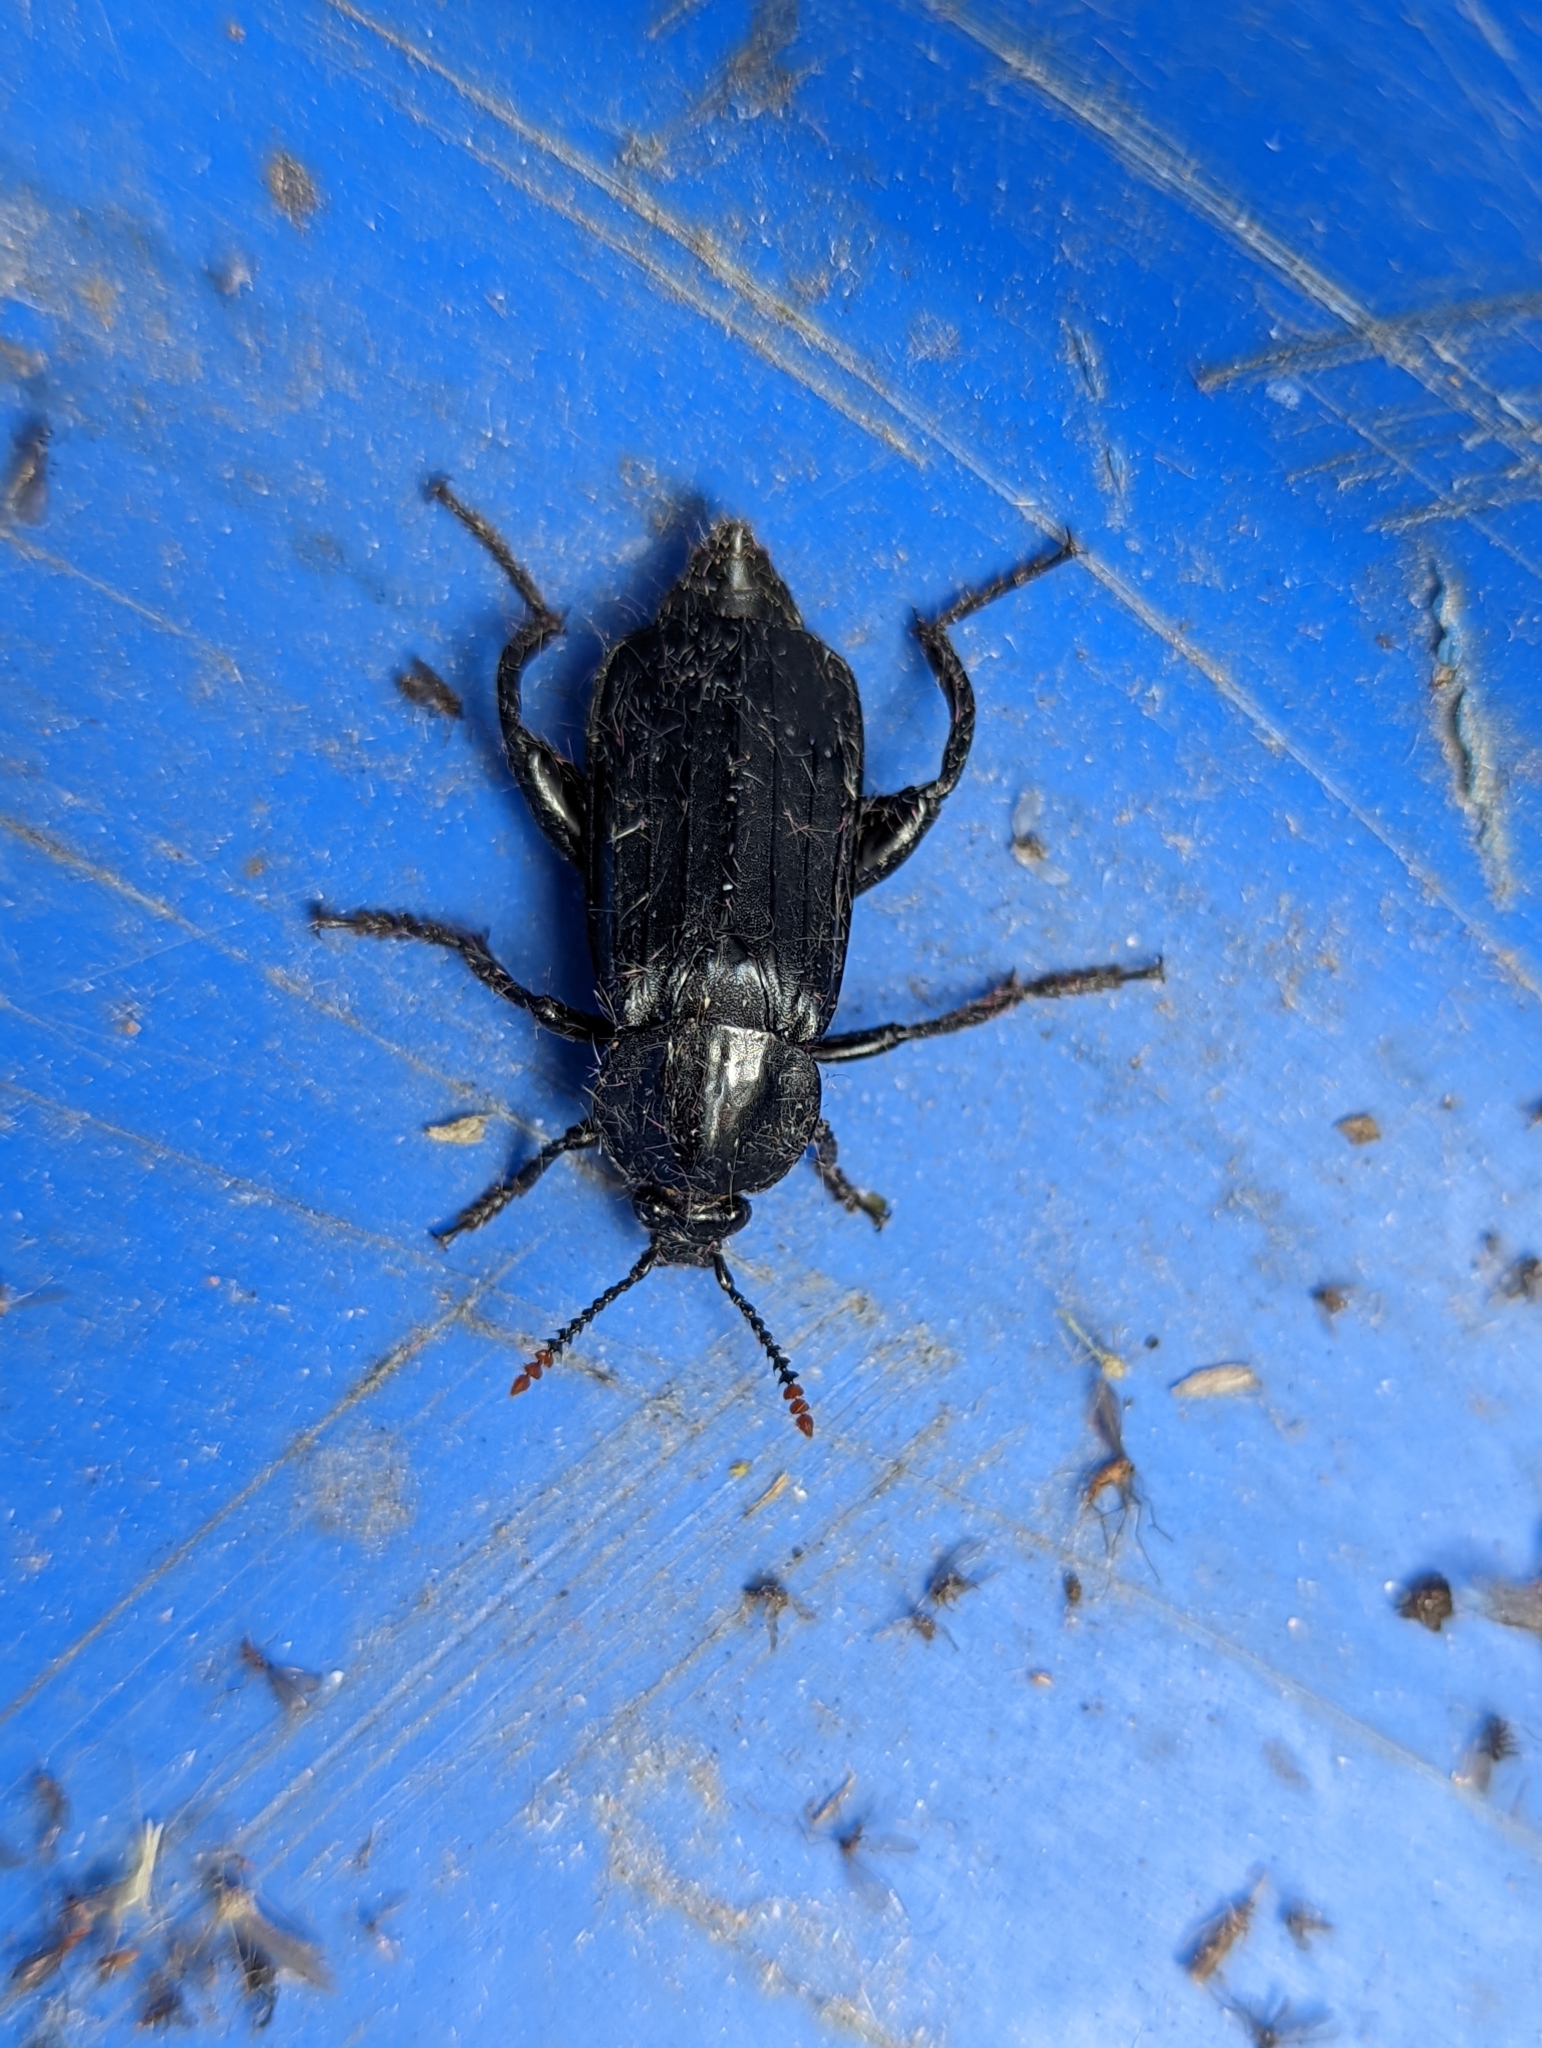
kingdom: Animalia
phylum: Arthropoda
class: Insecta
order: Coleoptera
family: Staphylinidae
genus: Necrodes
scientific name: Necrodes littoralis
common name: Shore sexton beetle
